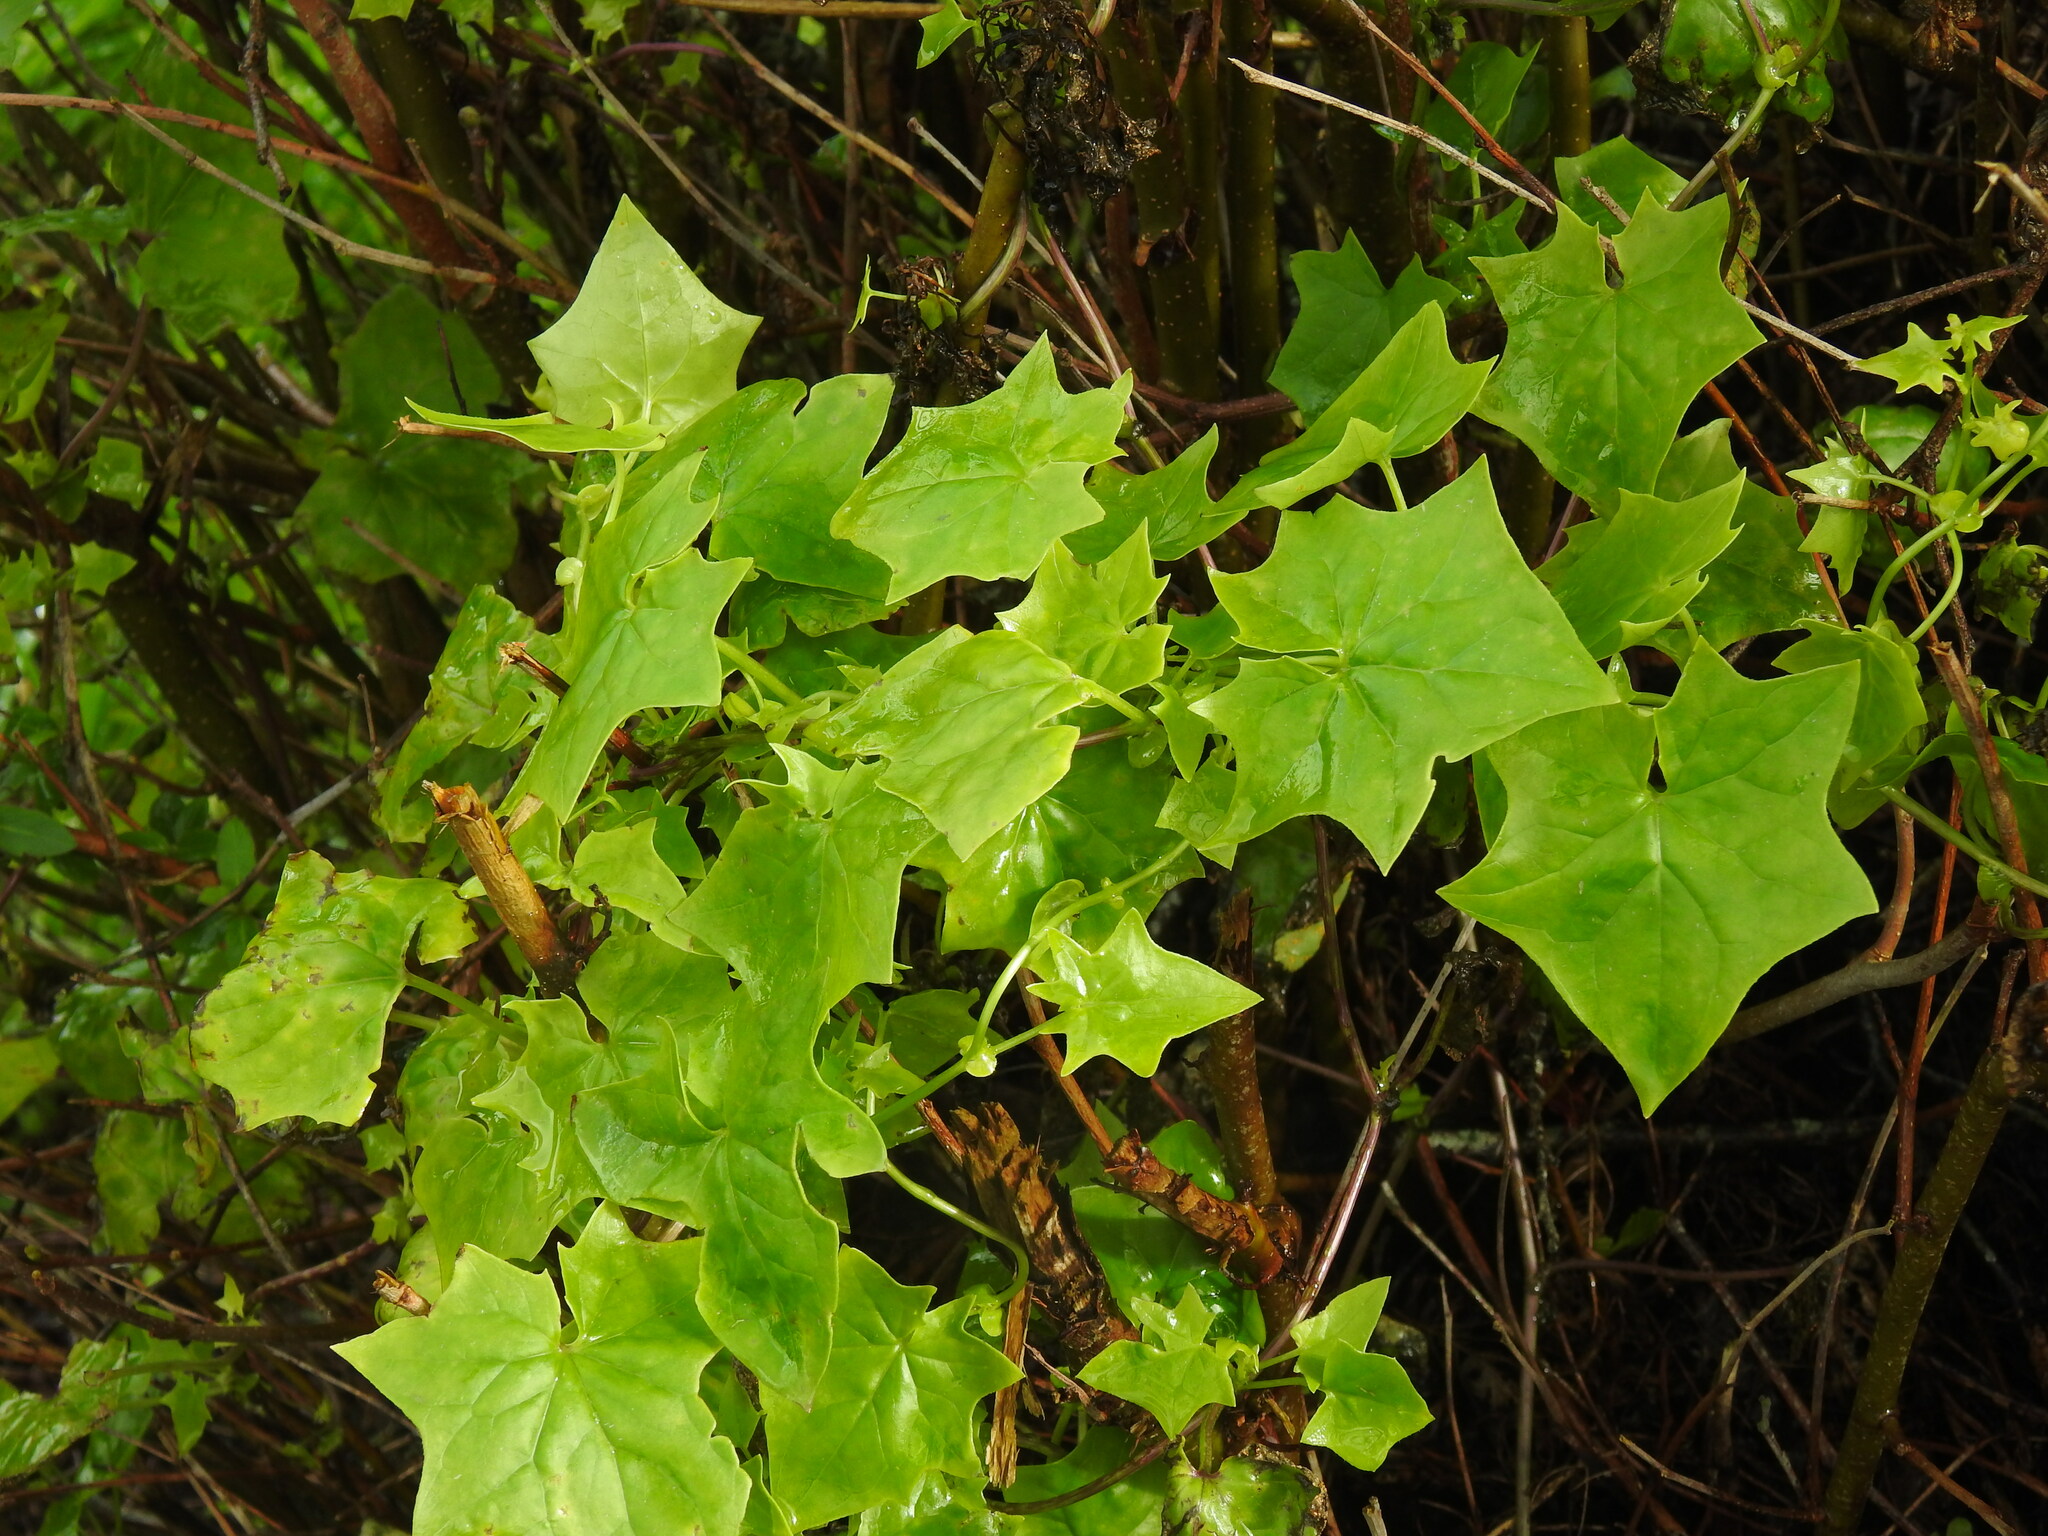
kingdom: Plantae
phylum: Tracheophyta
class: Magnoliopsida
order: Asterales
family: Asteraceae
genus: Delairea
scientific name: Delairea odorata
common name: Cape-ivy
